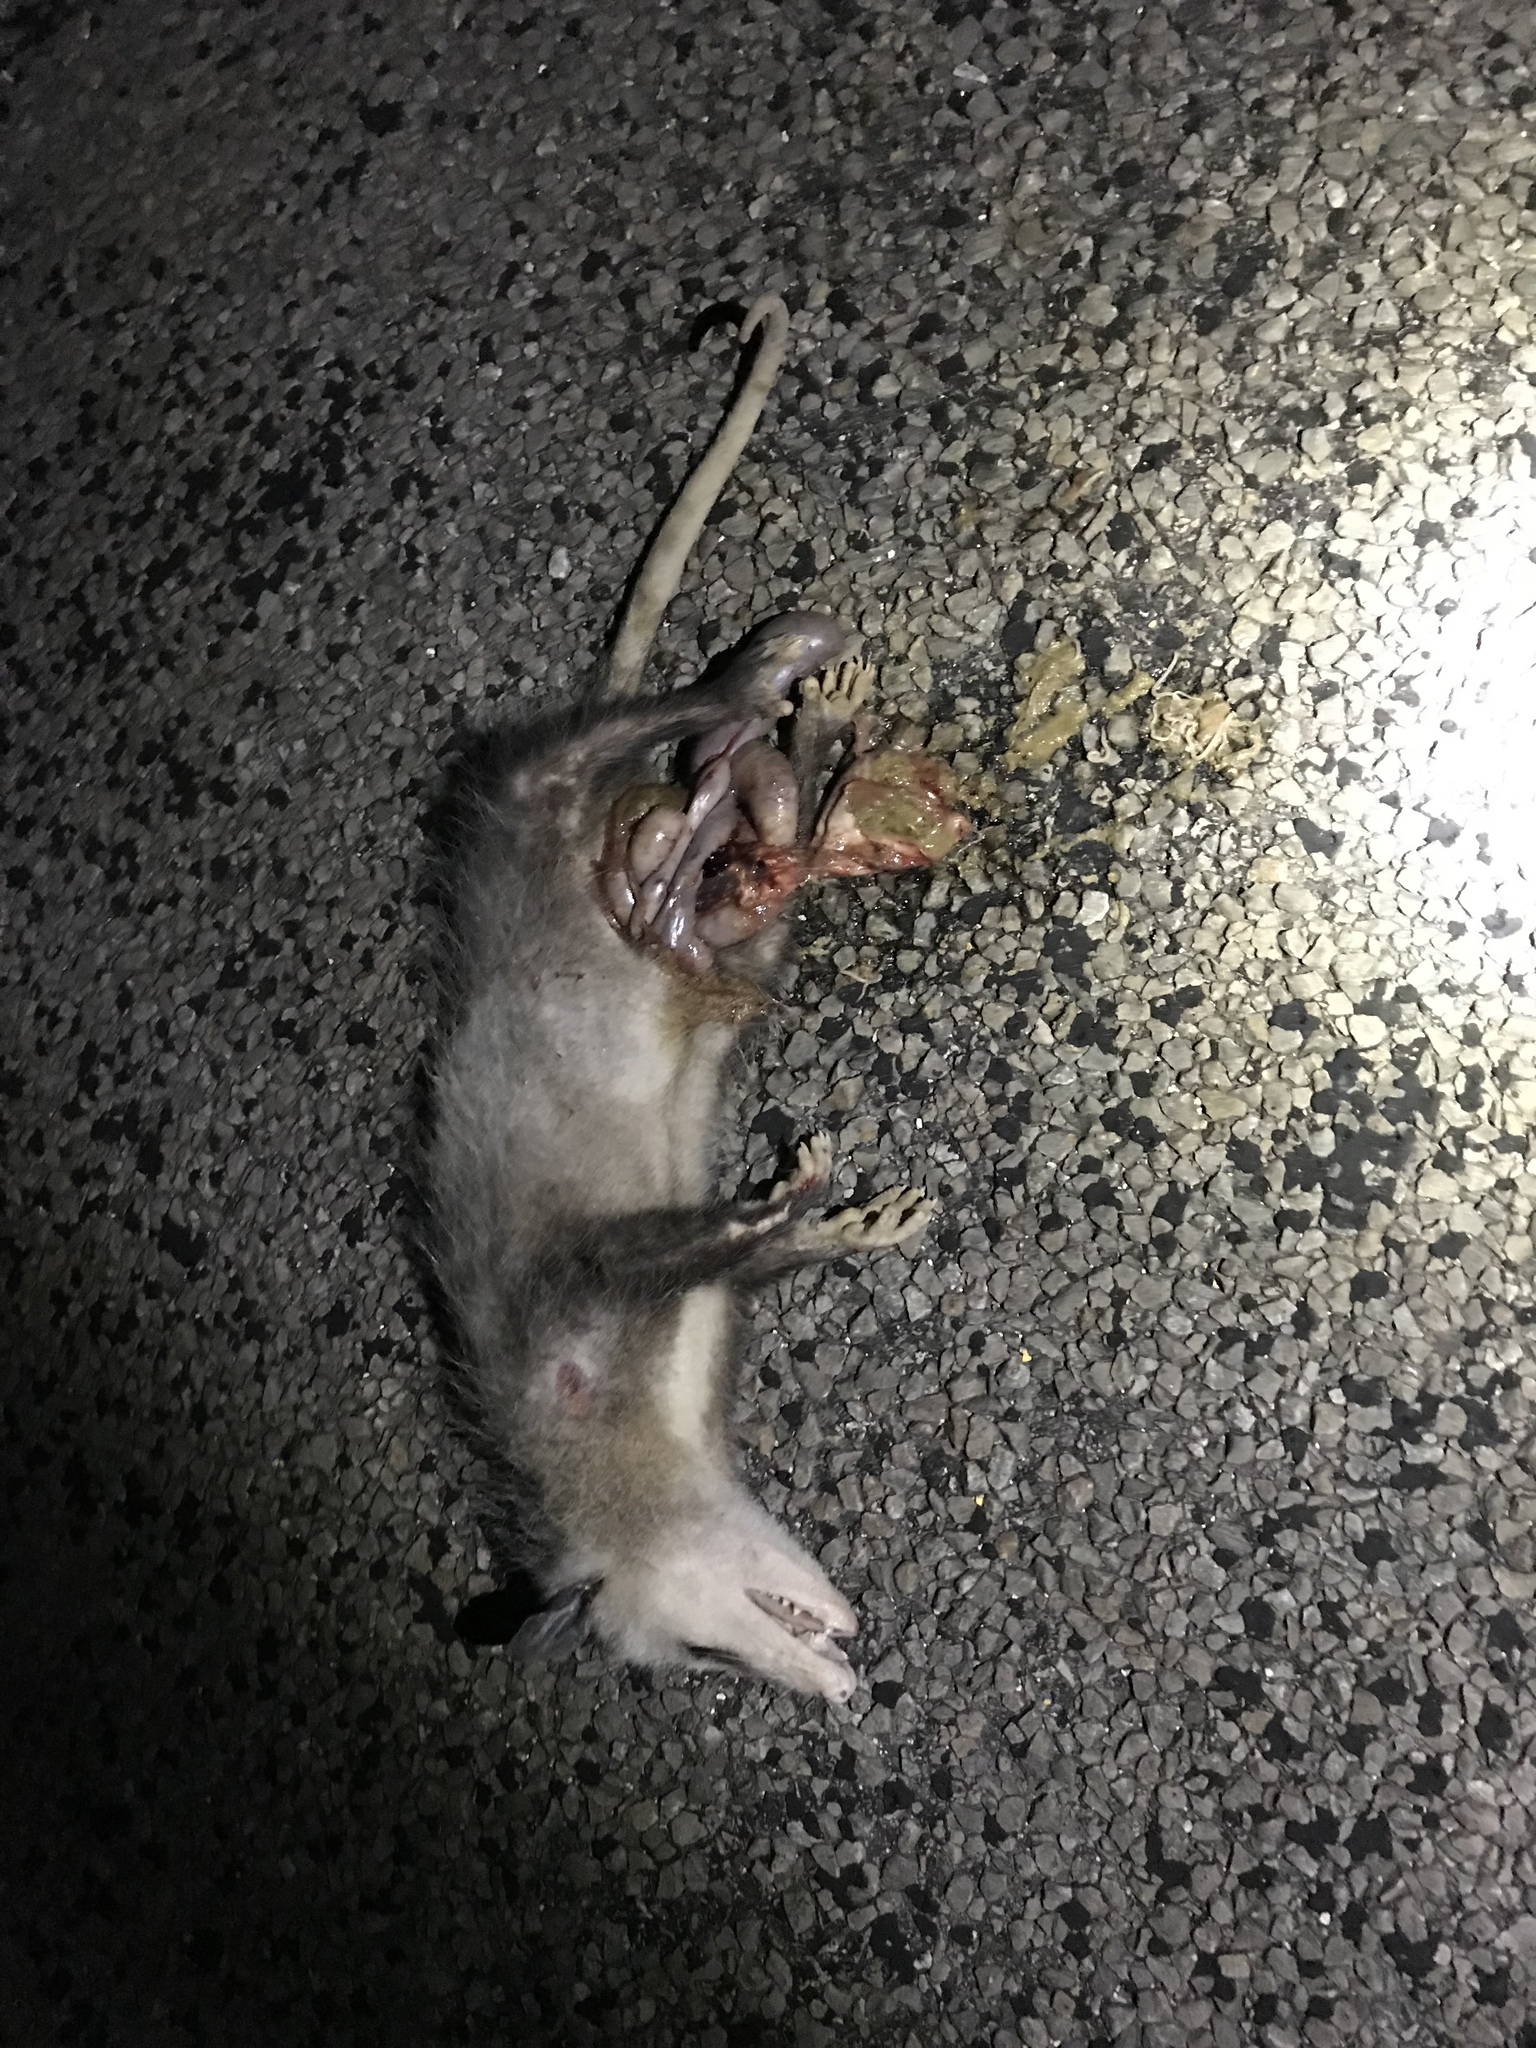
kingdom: Animalia
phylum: Chordata
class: Mammalia
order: Didelphimorphia
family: Didelphidae
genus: Didelphis
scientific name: Didelphis virginiana
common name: Virginia opossum
